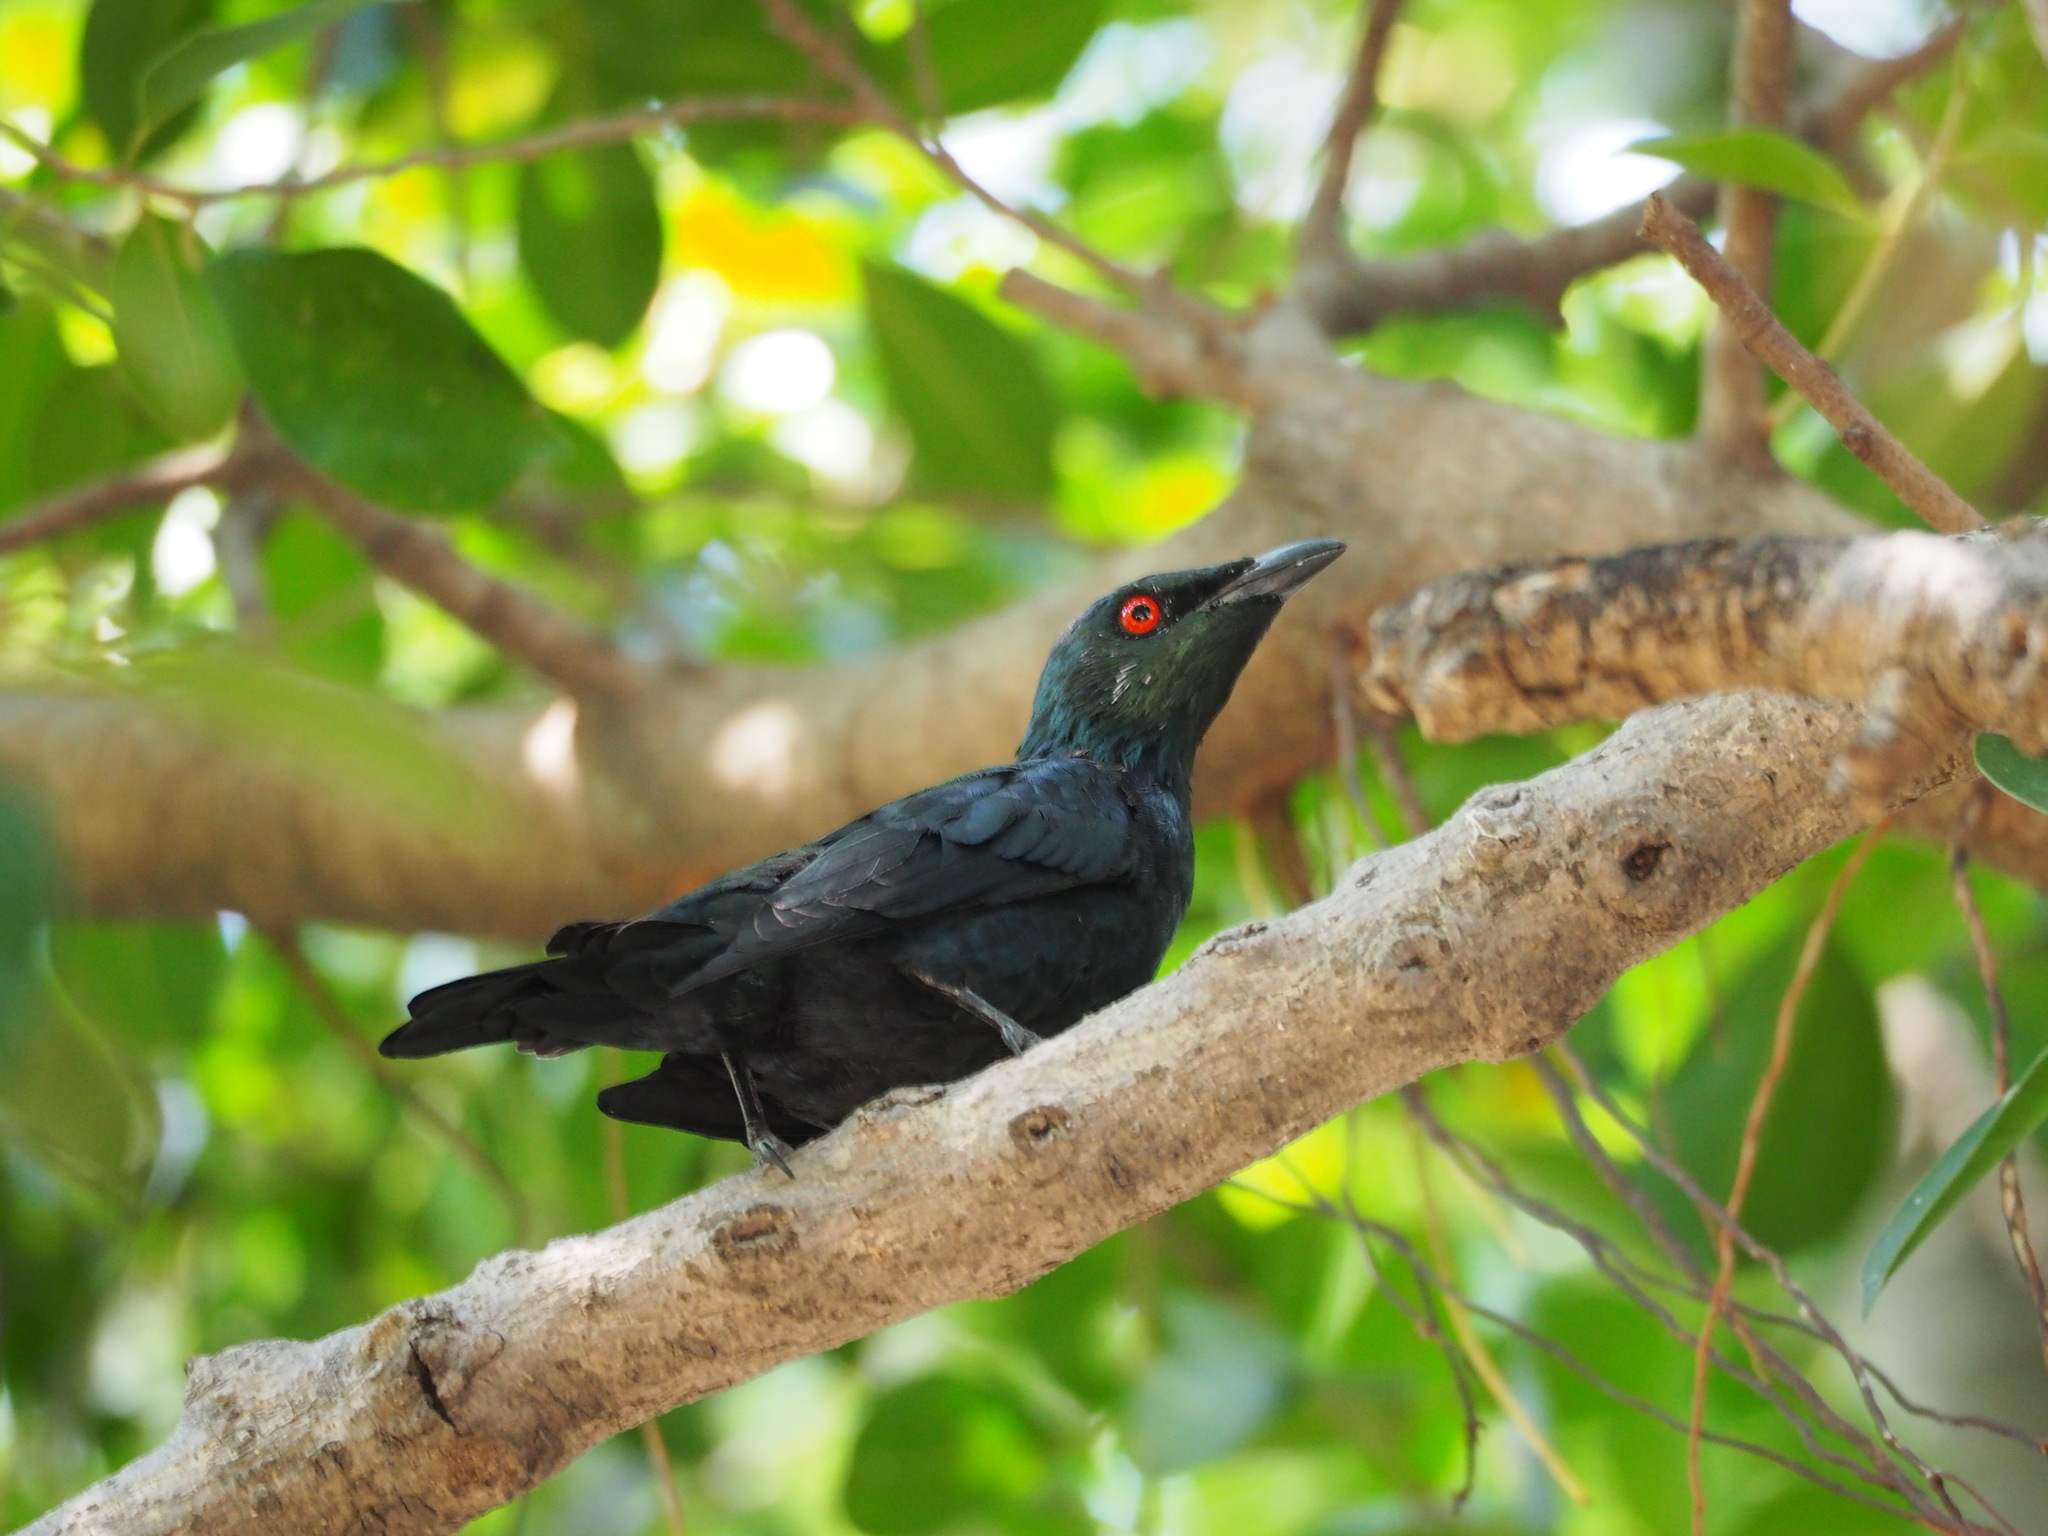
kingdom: Animalia
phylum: Chordata
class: Aves
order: Passeriformes
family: Sturnidae
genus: Aplonis
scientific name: Aplonis panayensis
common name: Asian glossy starling
